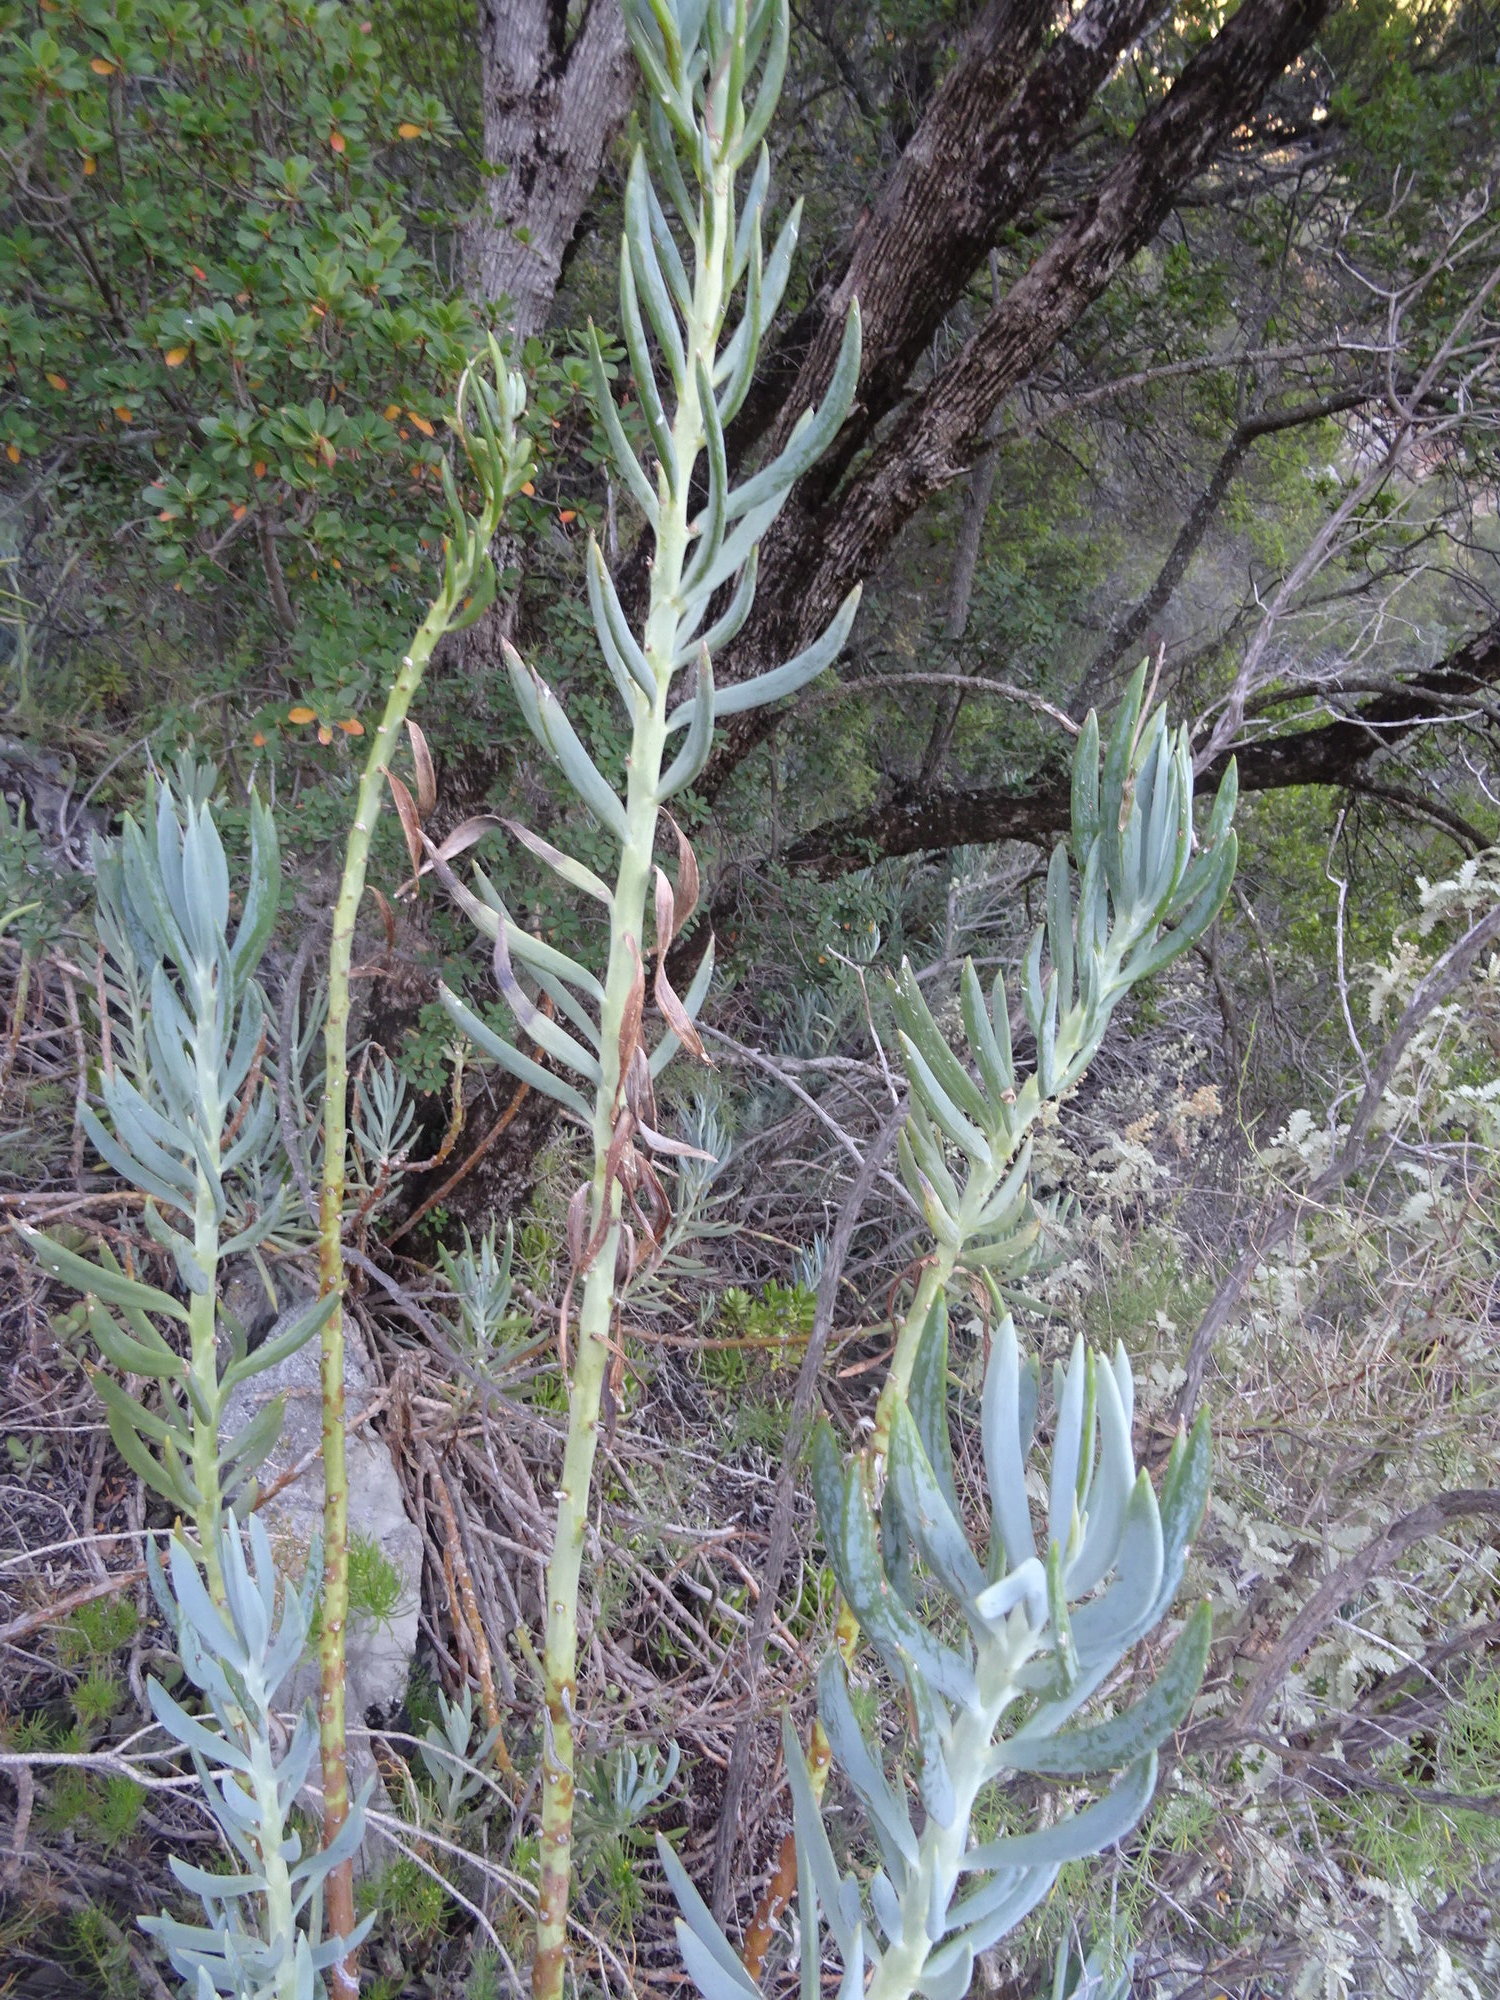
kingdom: Plantae
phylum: Tracheophyta
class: Magnoliopsida
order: Asterales
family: Asteraceae
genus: Curio
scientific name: Curio ficoides
